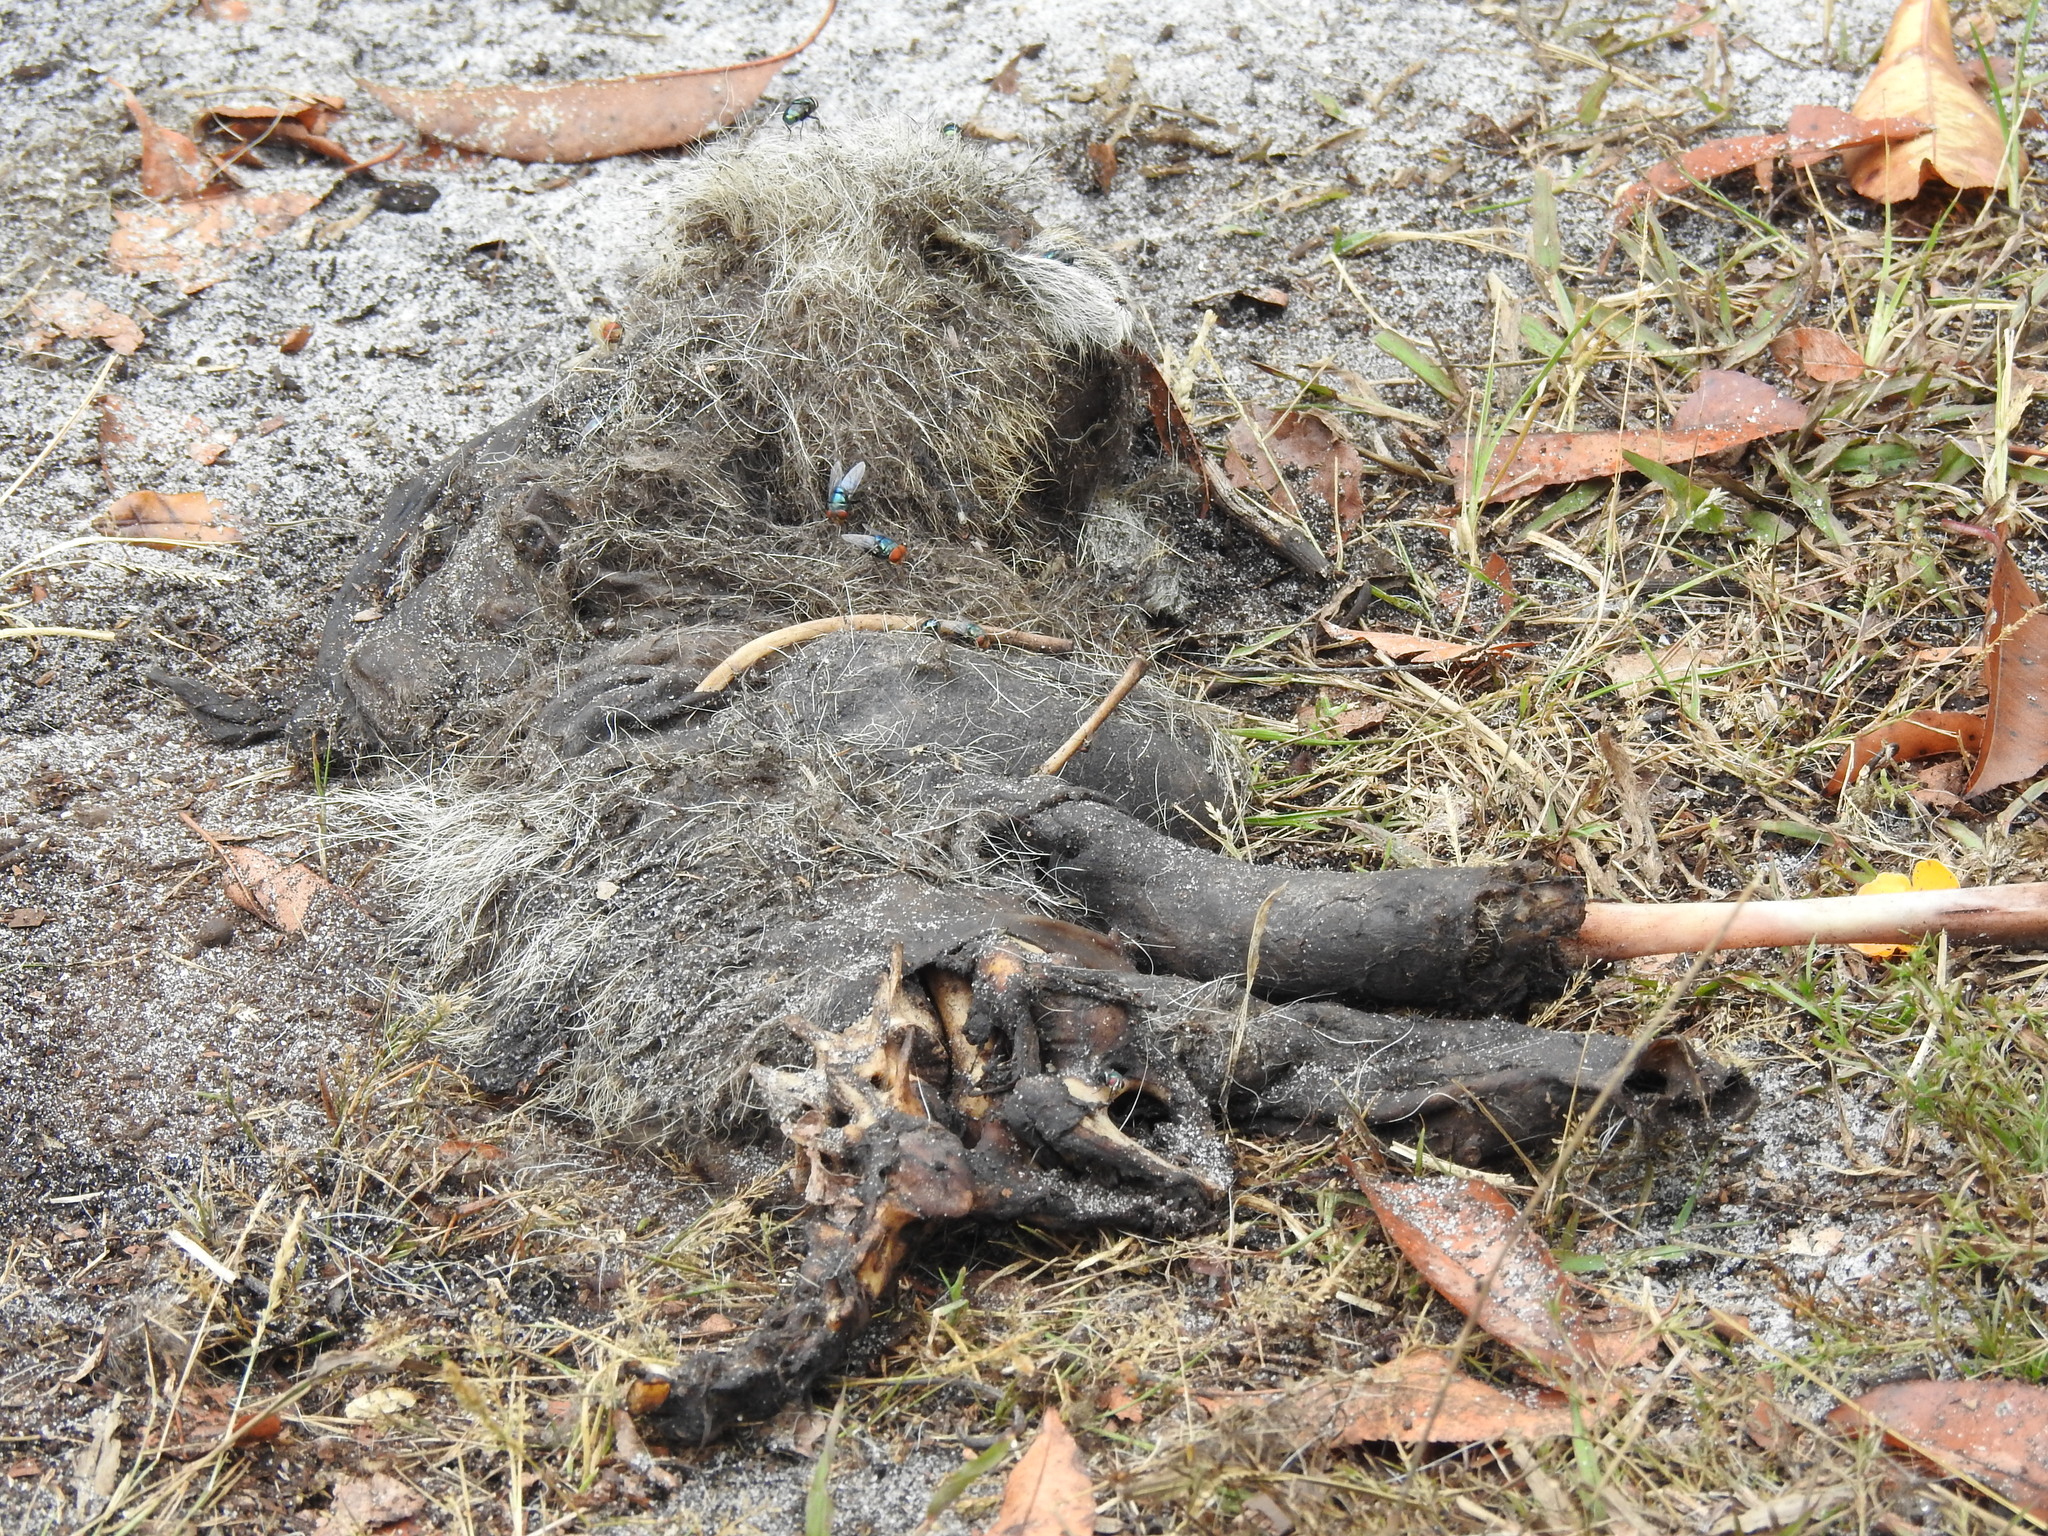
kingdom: Animalia
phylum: Chordata
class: Mammalia
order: Carnivora
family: Procyonidae
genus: Procyon
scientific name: Procyon lotor
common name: Raccoon
